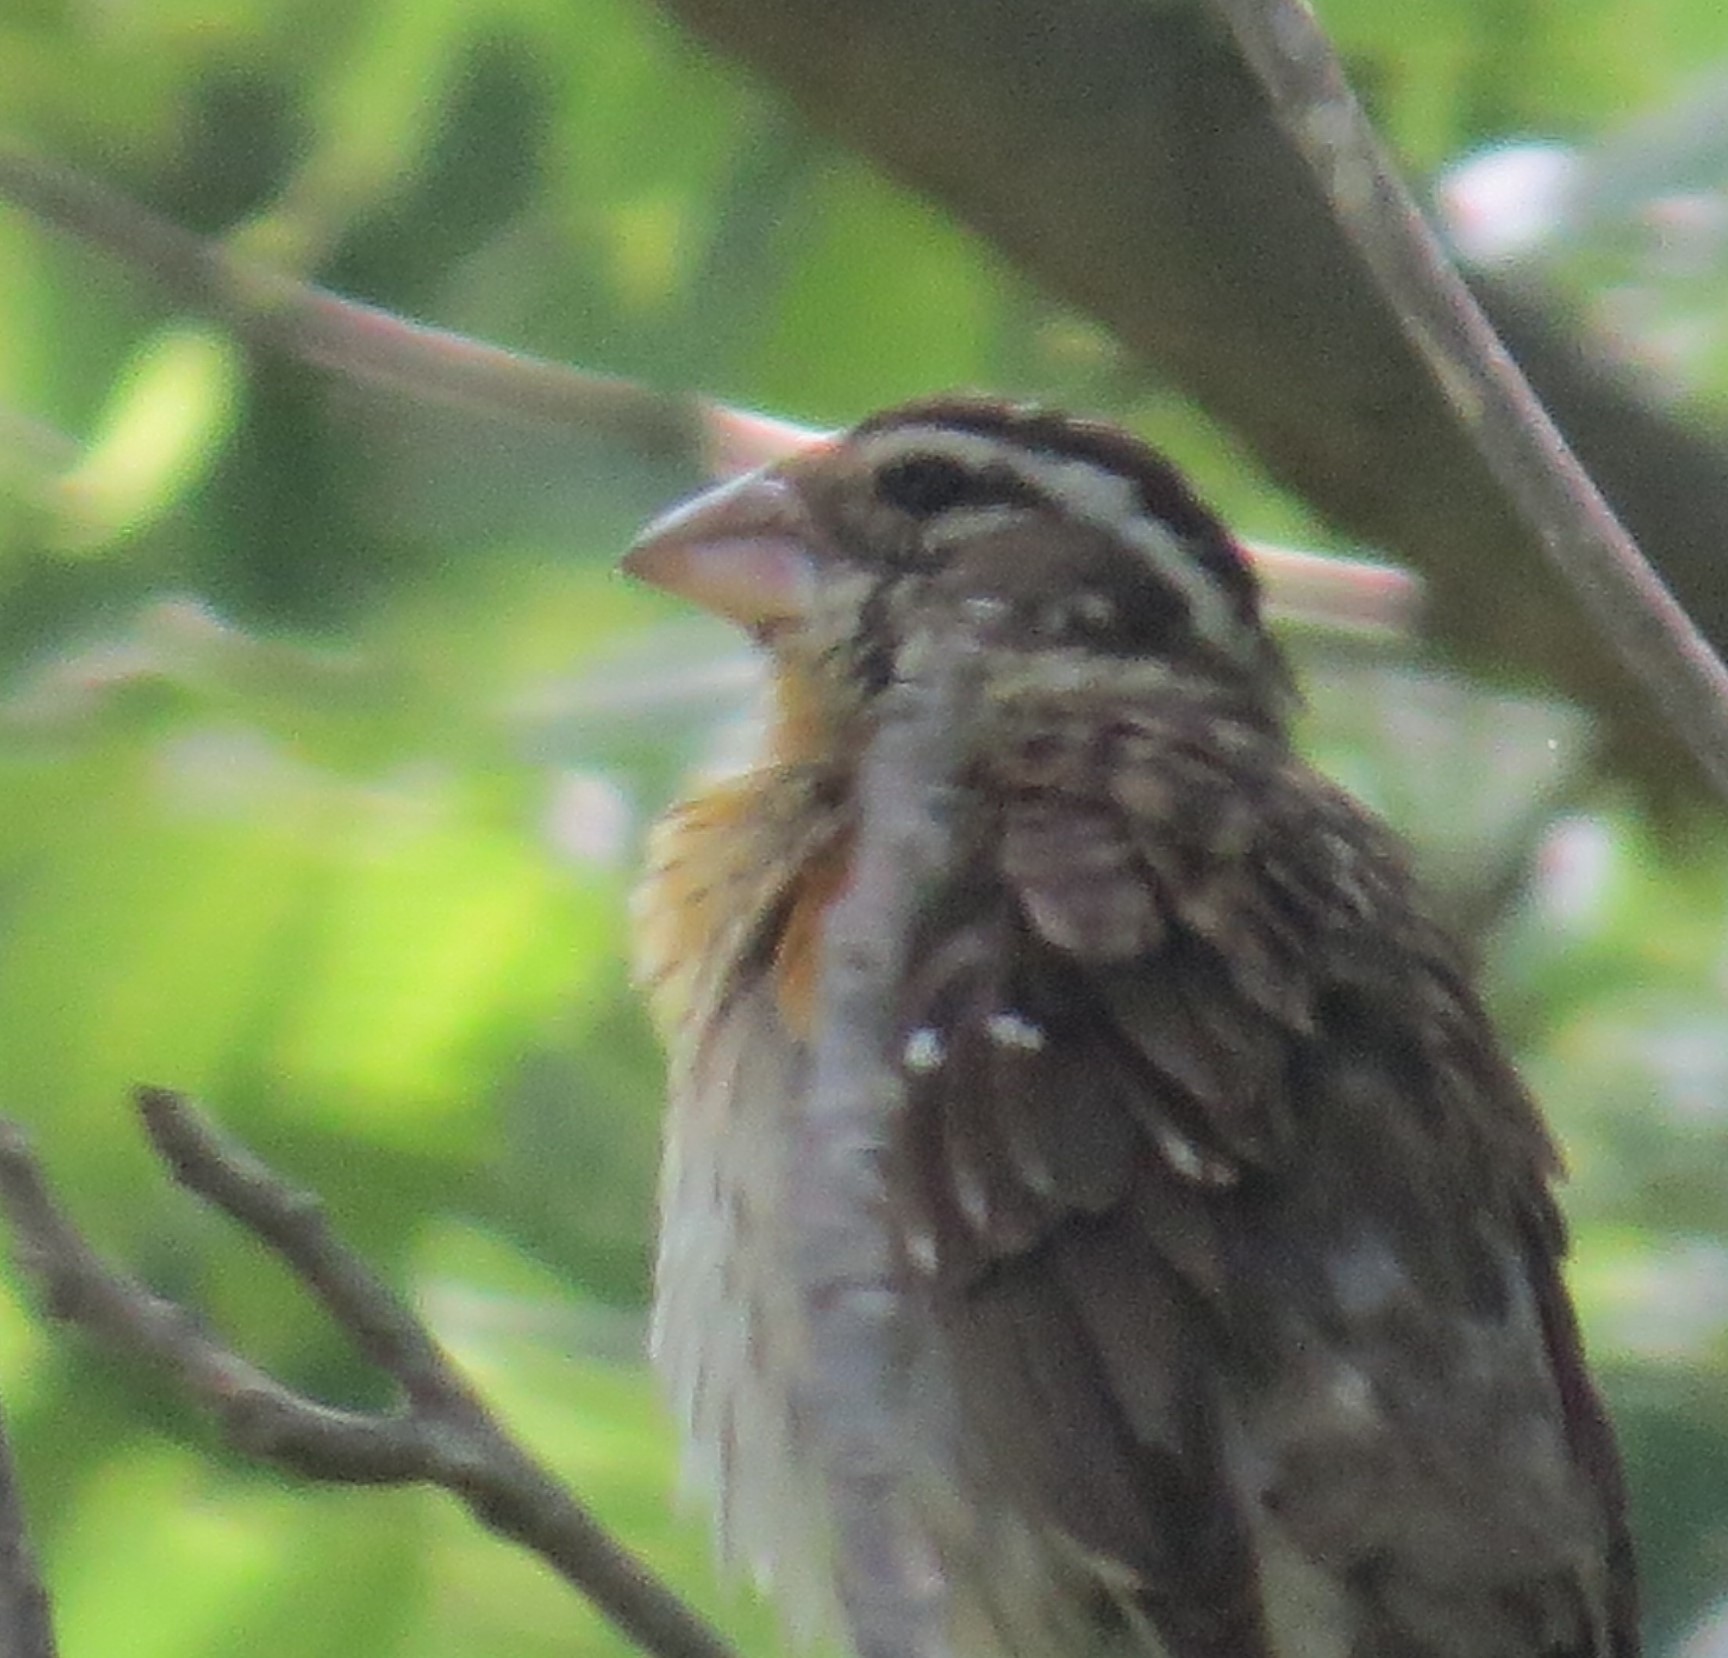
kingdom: Animalia
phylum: Chordata
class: Aves
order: Passeriformes
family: Cardinalidae
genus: Pheucticus
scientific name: Pheucticus ludovicianus
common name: Rose-breasted grosbeak
